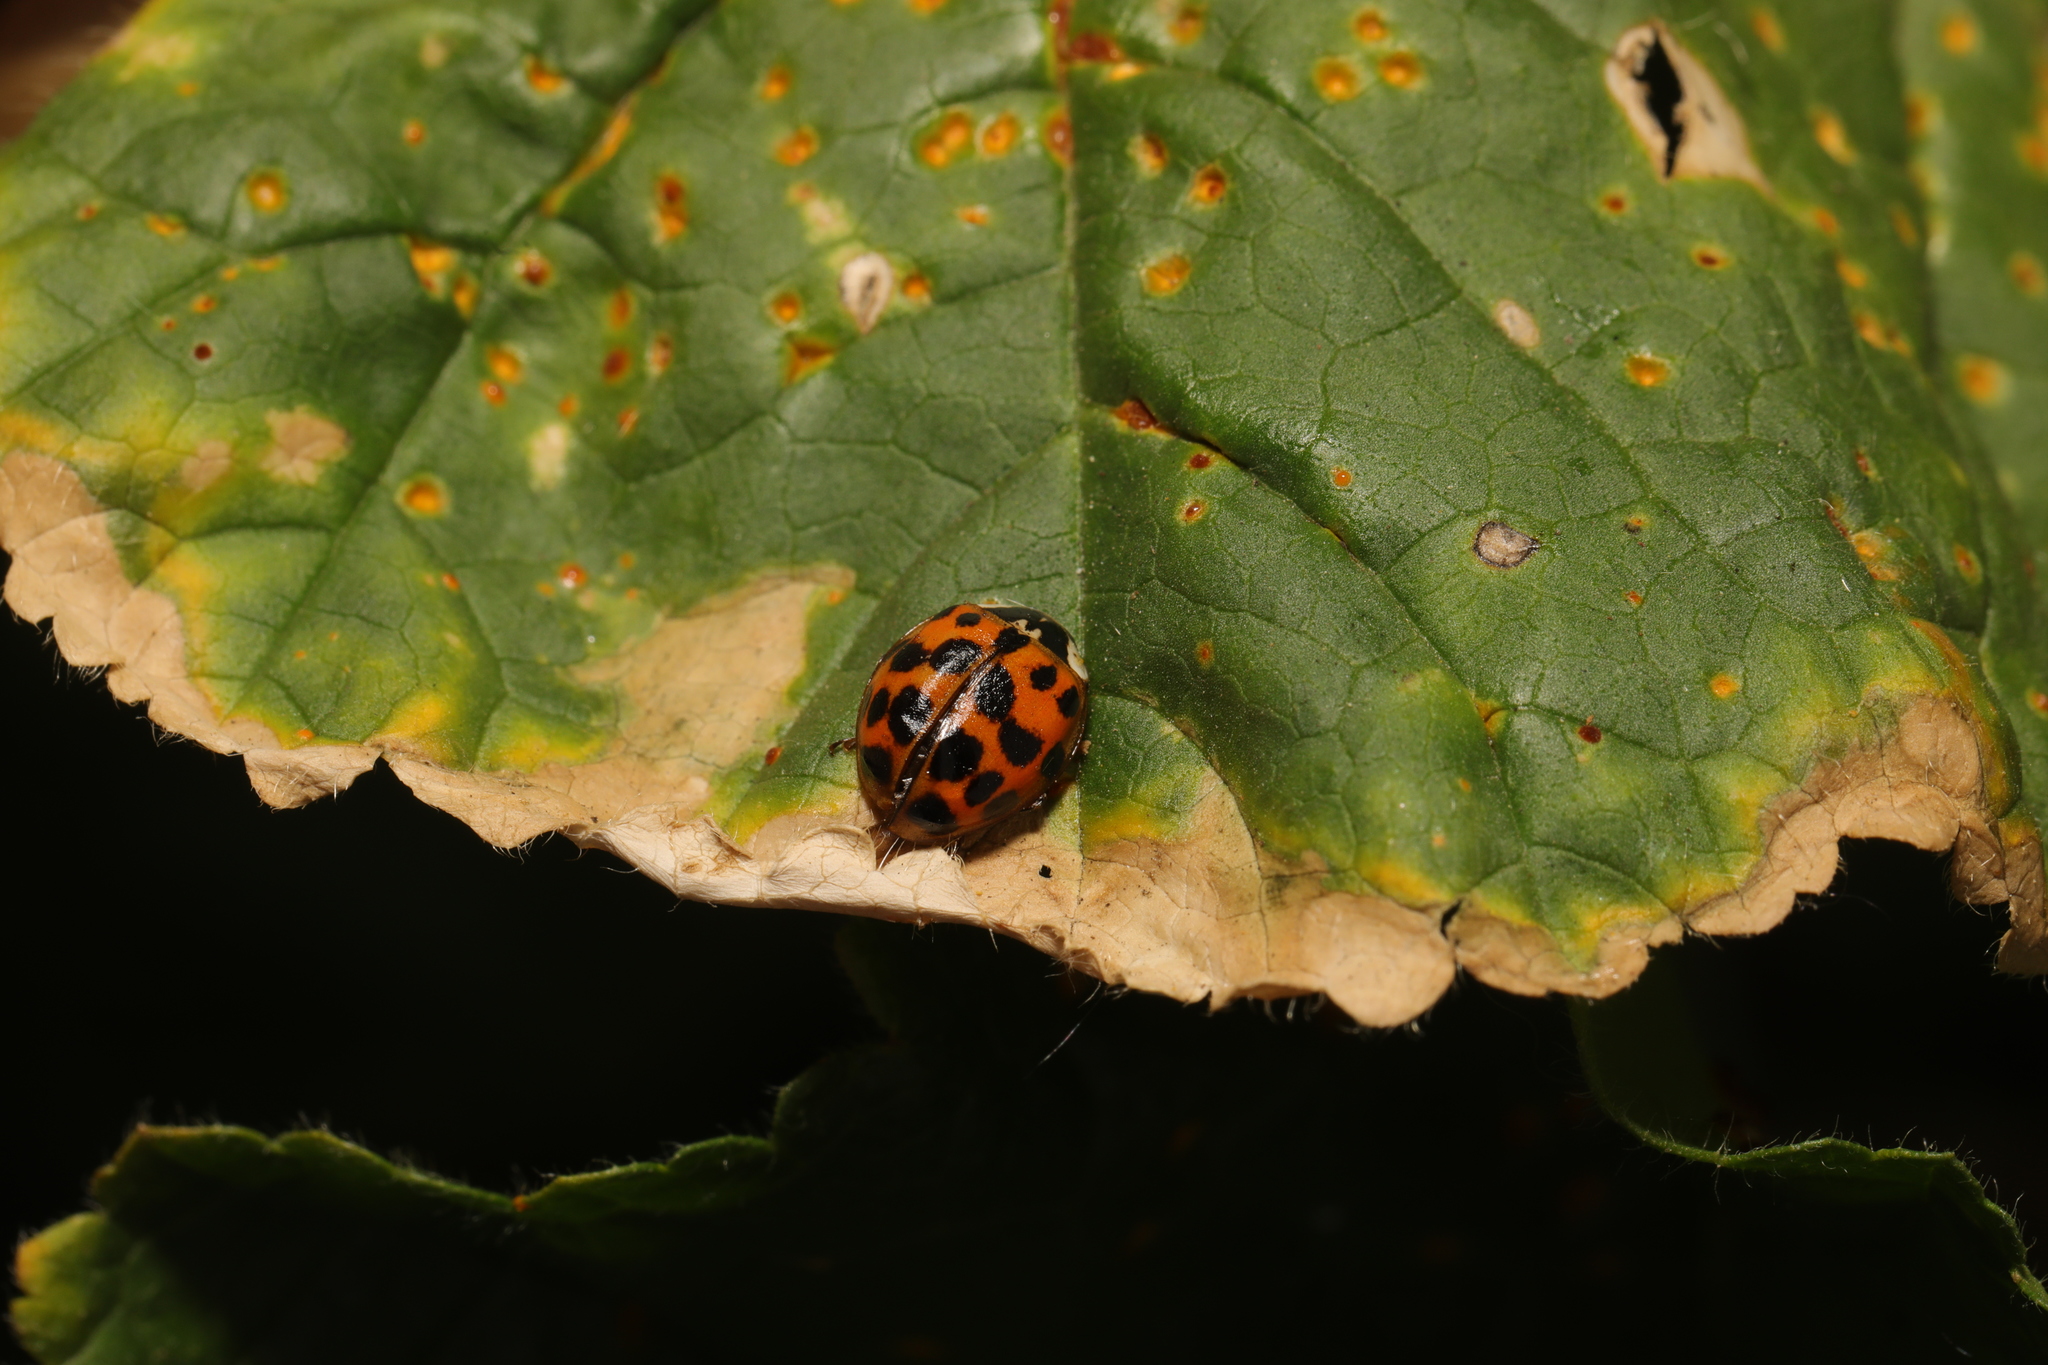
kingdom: Animalia
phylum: Arthropoda
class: Insecta
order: Coleoptera
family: Coccinellidae
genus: Harmonia
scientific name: Harmonia axyridis
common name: Harlequin ladybird
